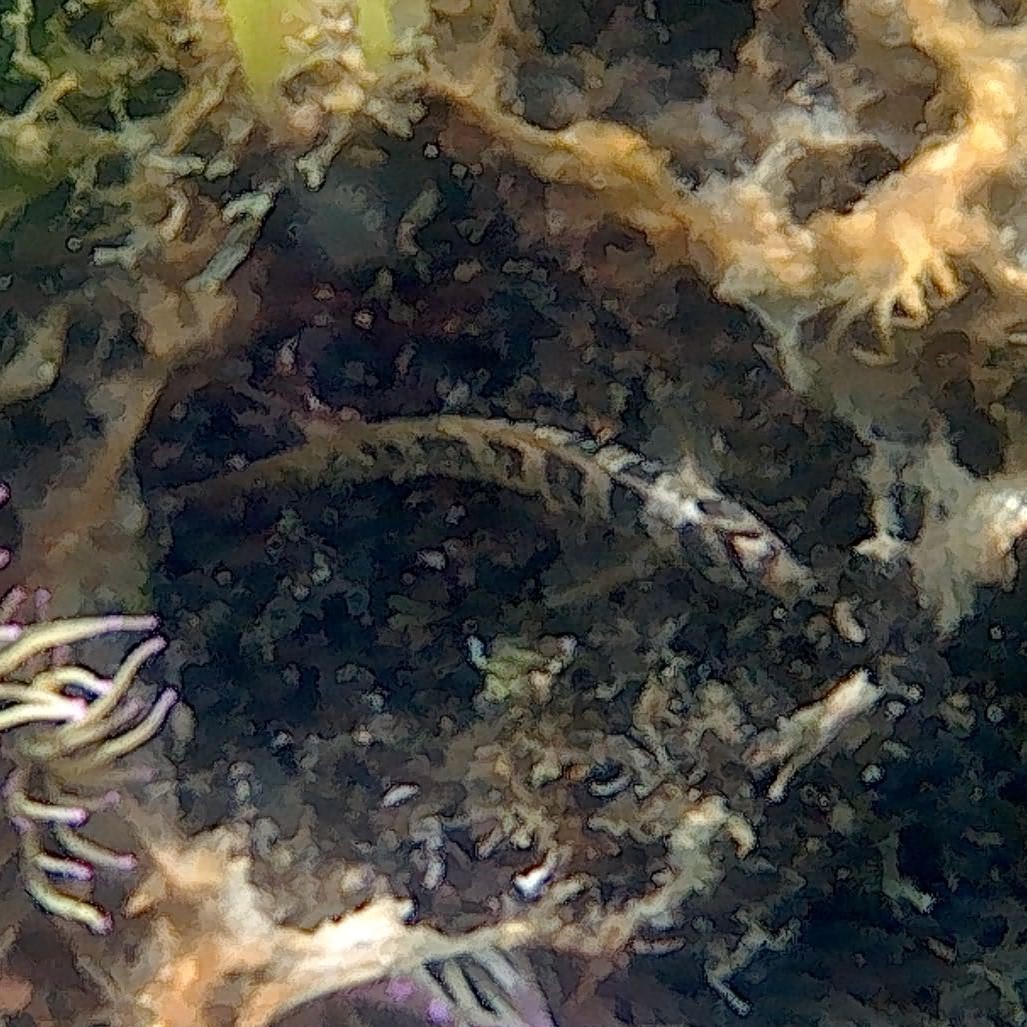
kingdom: Animalia
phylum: Chordata
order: Perciformes
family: Blenniidae
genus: Salaria
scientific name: Salaria pavo
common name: Peacock blenny
